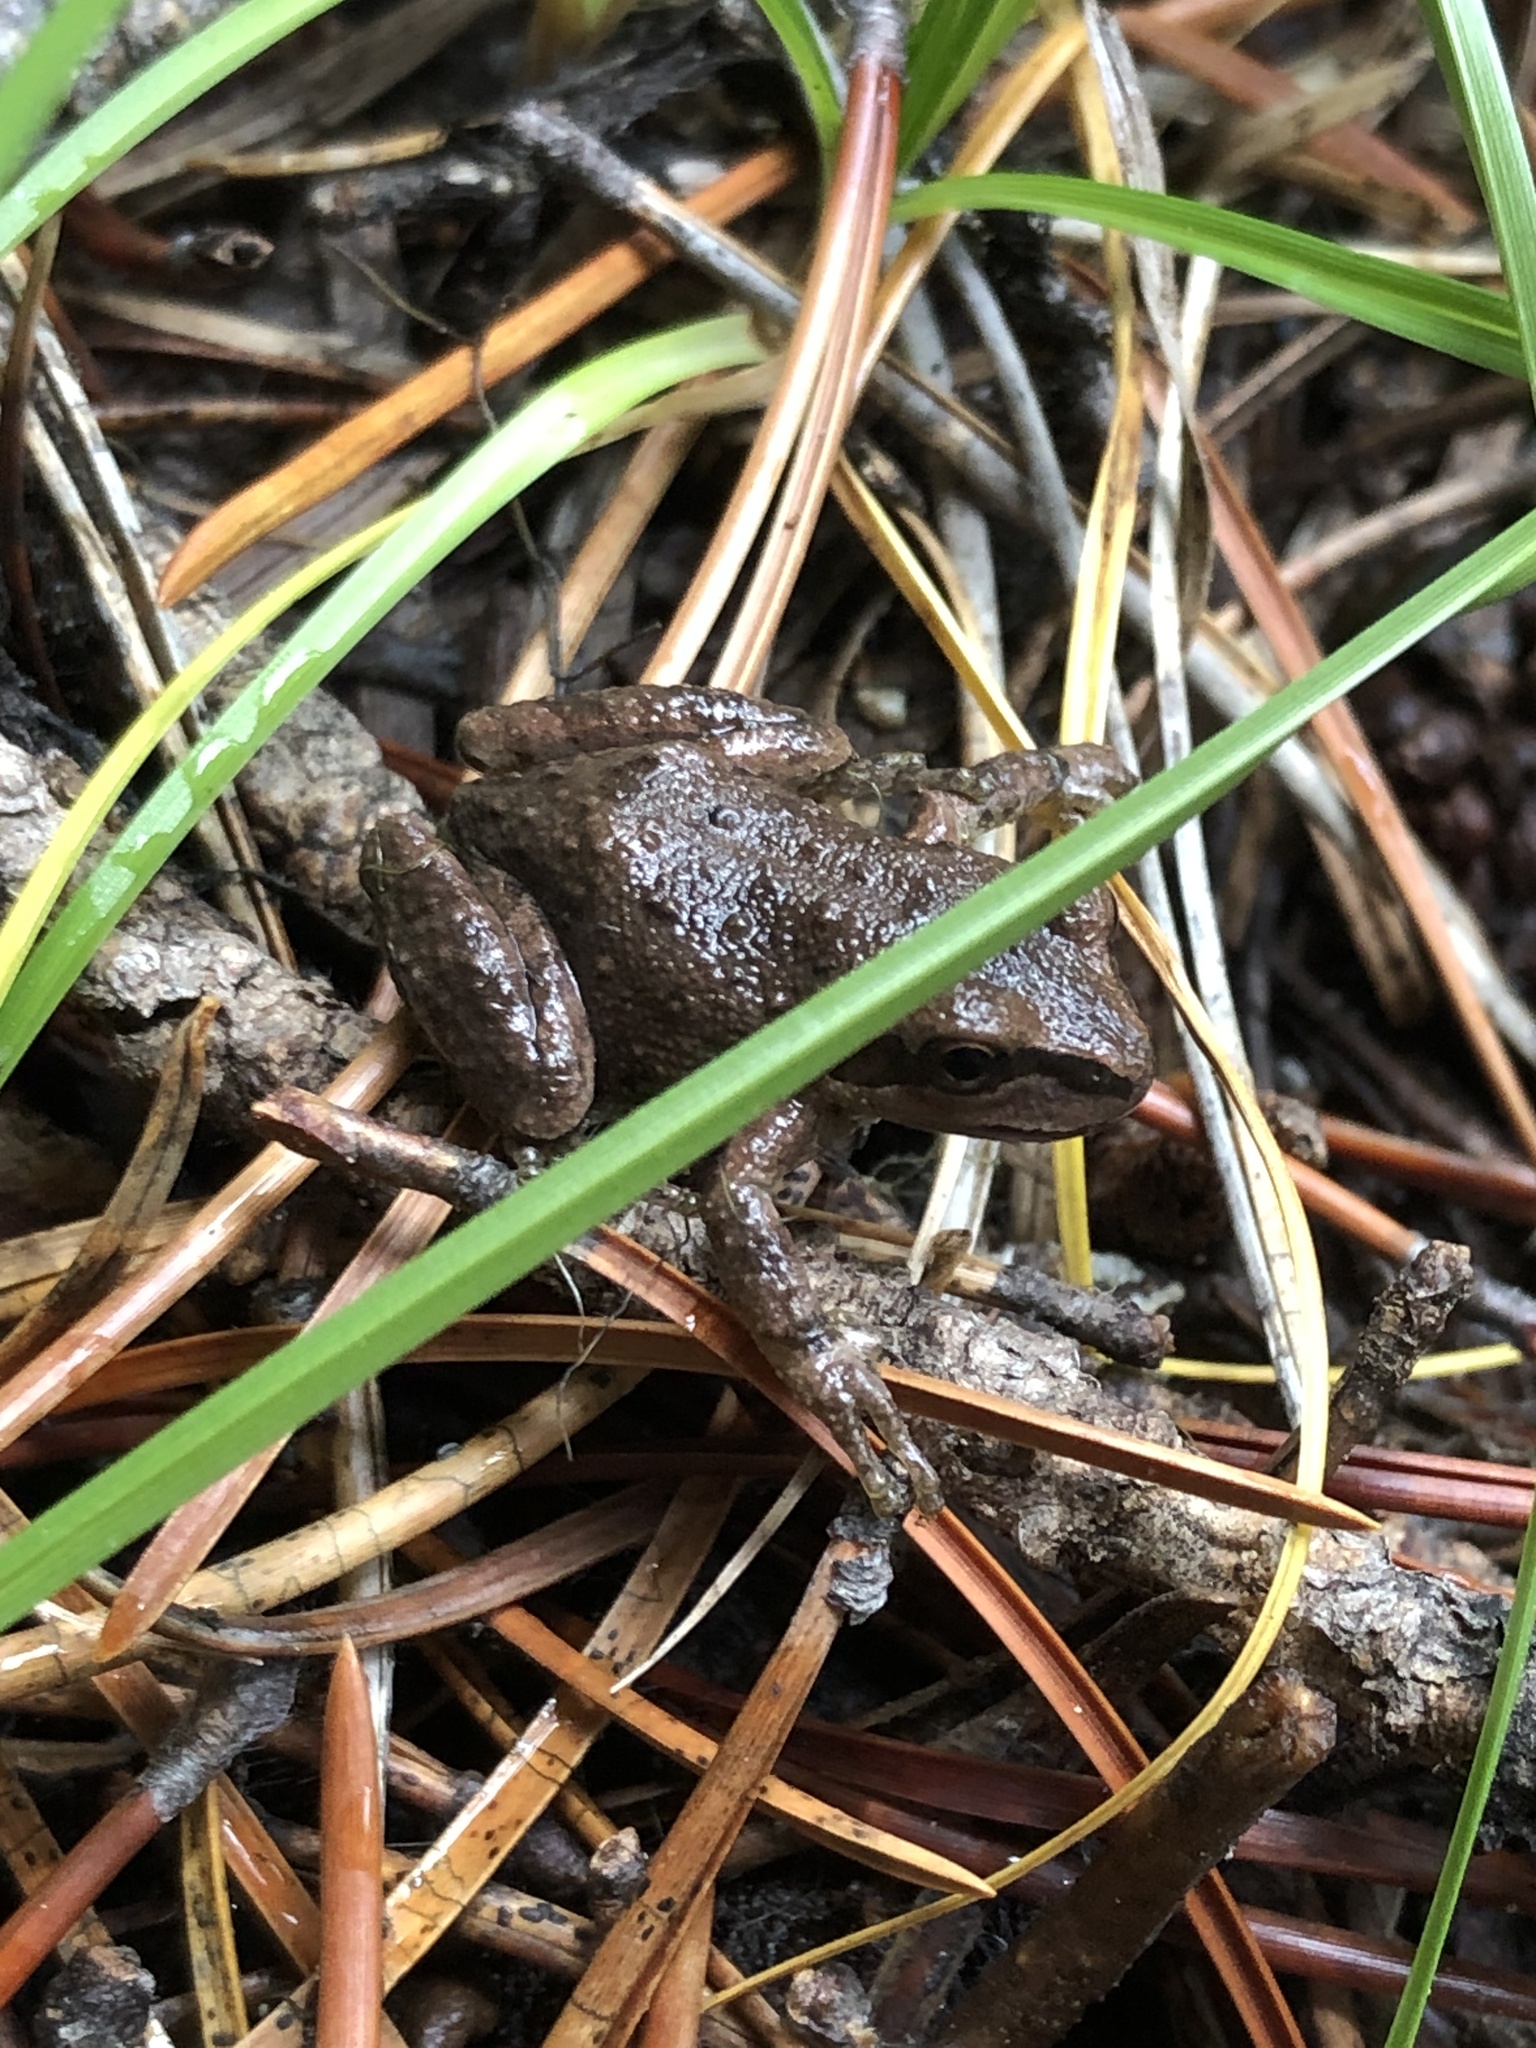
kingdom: Animalia
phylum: Chordata
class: Amphibia
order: Anura
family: Hylidae
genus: Pseudacris
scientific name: Pseudacris regilla
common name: Pacific chorus frog
